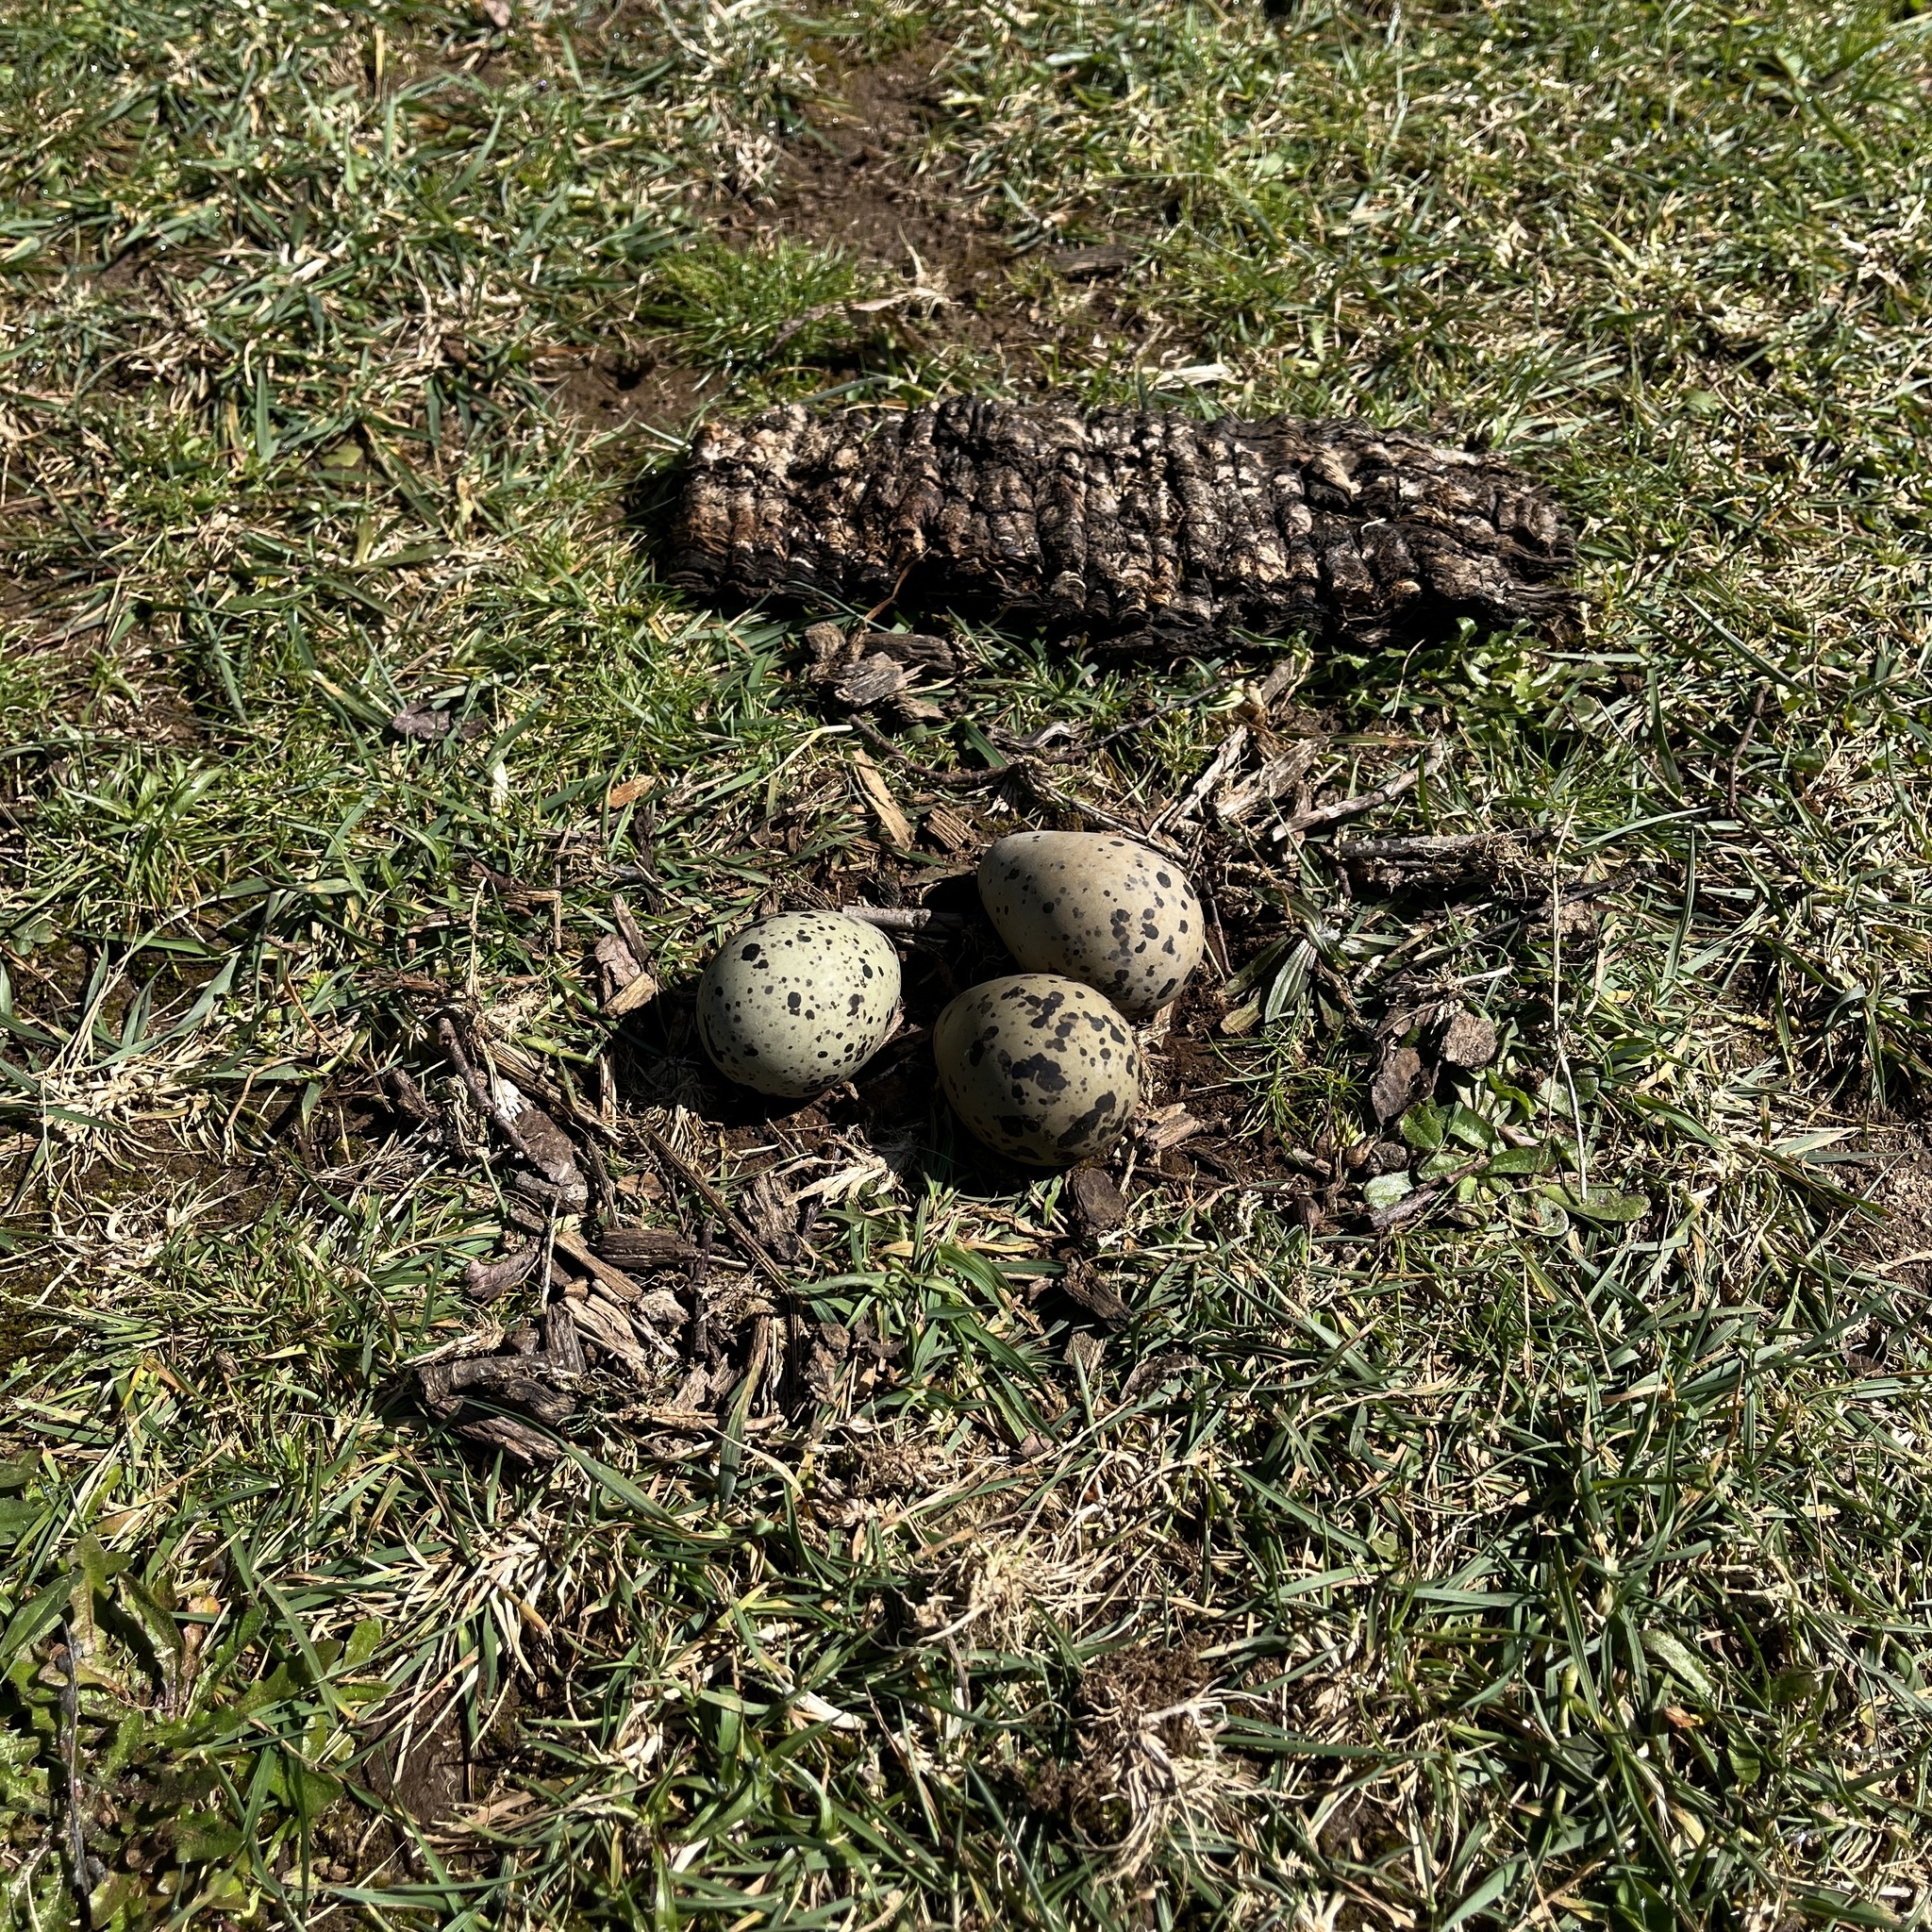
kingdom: Animalia
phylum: Chordata
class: Aves
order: Charadriiformes
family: Charadriidae
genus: Vanellus
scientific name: Vanellus chilensis
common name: Southern lapwing
